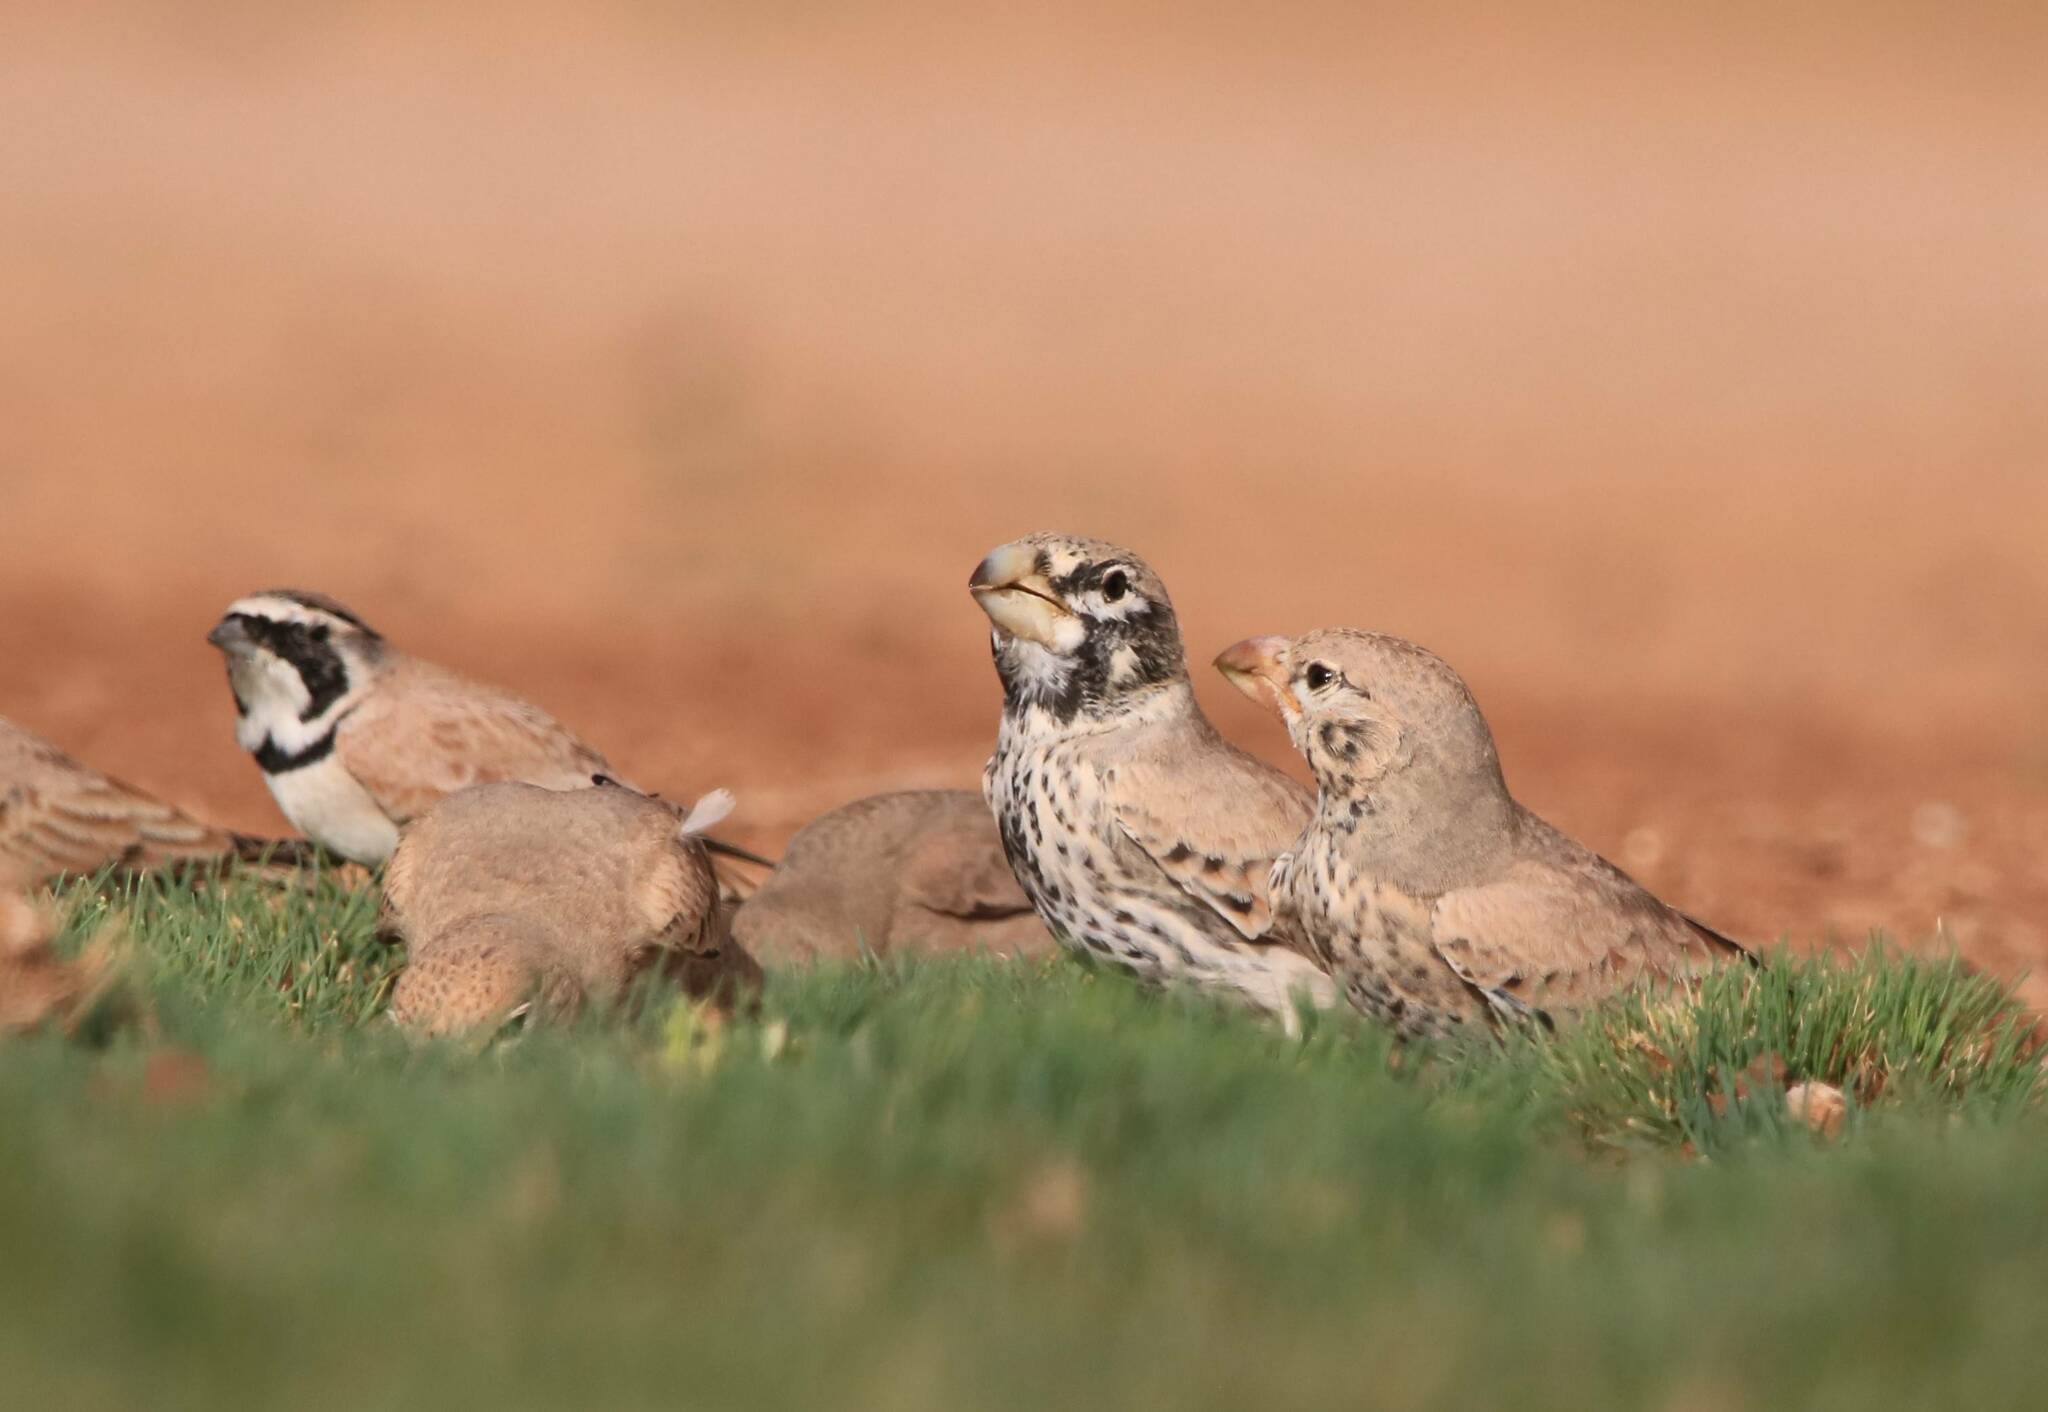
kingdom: Animalia
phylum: Chordata
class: Aves
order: Passeriformes
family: Alaudidae
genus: Ramphocoris
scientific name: Ramphocoris clotbey
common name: Thick-billed lark
